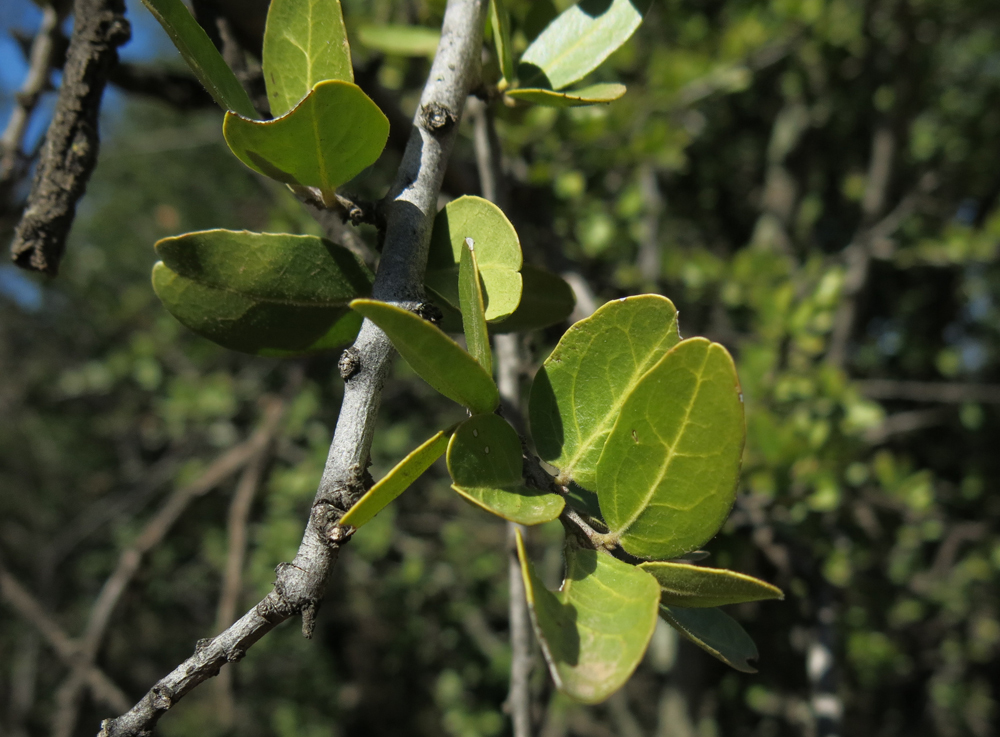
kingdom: Plantae
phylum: Tracheophyta
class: Magnoliopsida
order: Celastrales
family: Celastraceae
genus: Cassine
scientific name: Cassine burkeana
